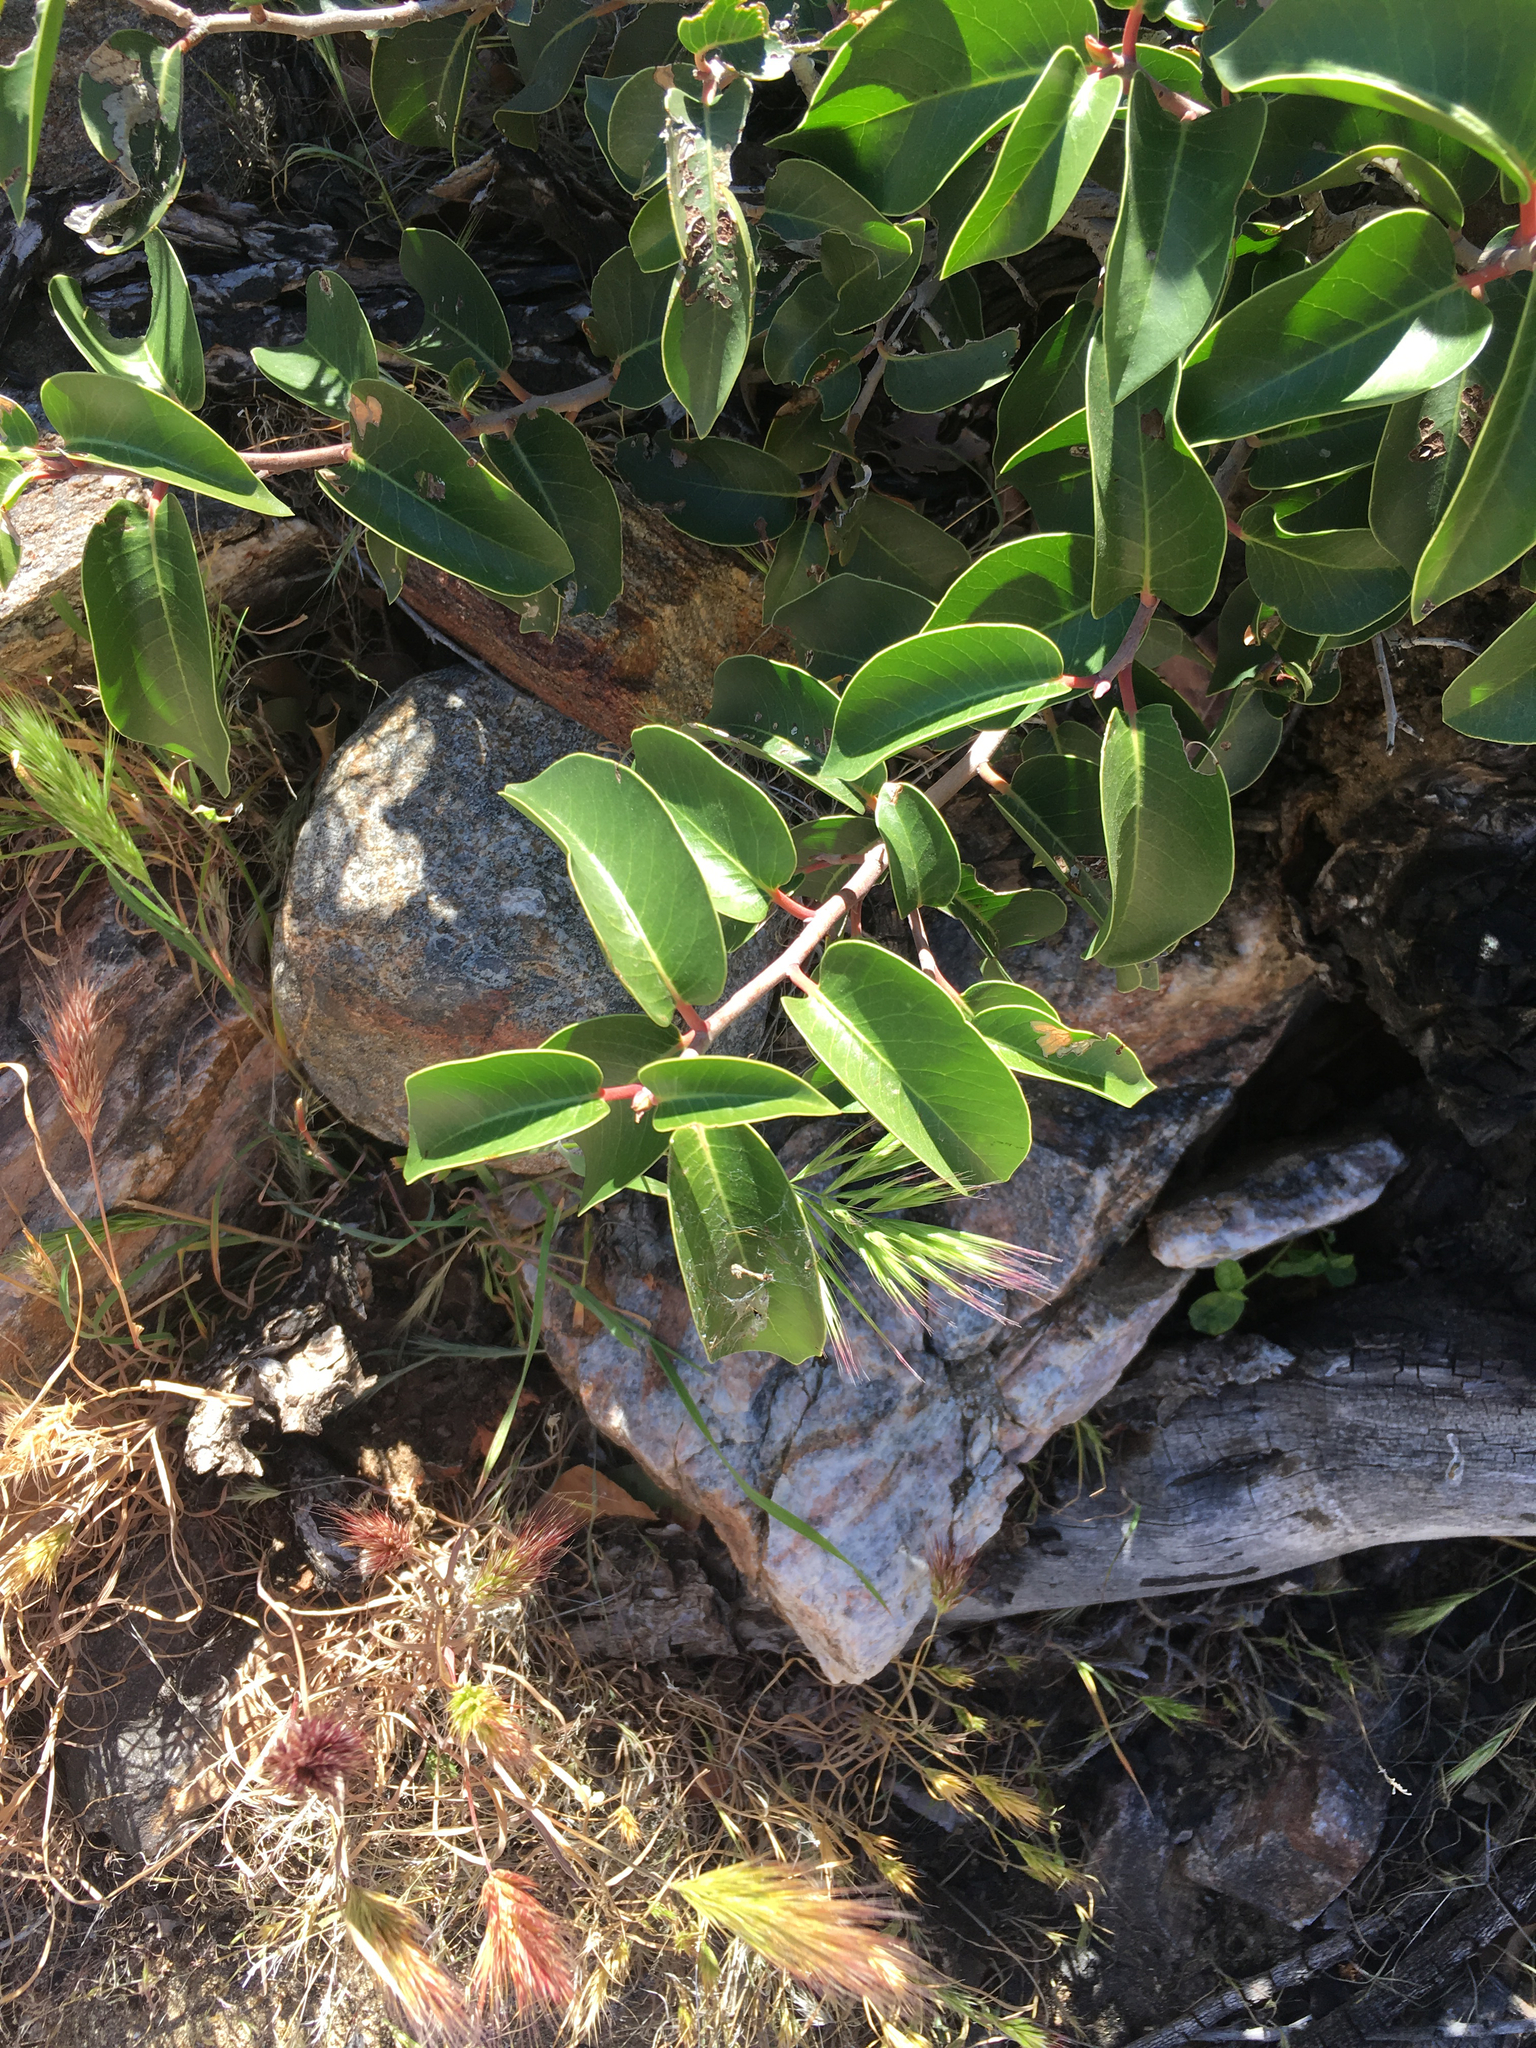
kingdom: Plantae
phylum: Tracheophyta
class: Magnoliopsida
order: Sapindales
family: Anacardiaceae
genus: Rhus
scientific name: Rhus ovata
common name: Sugar sumac
